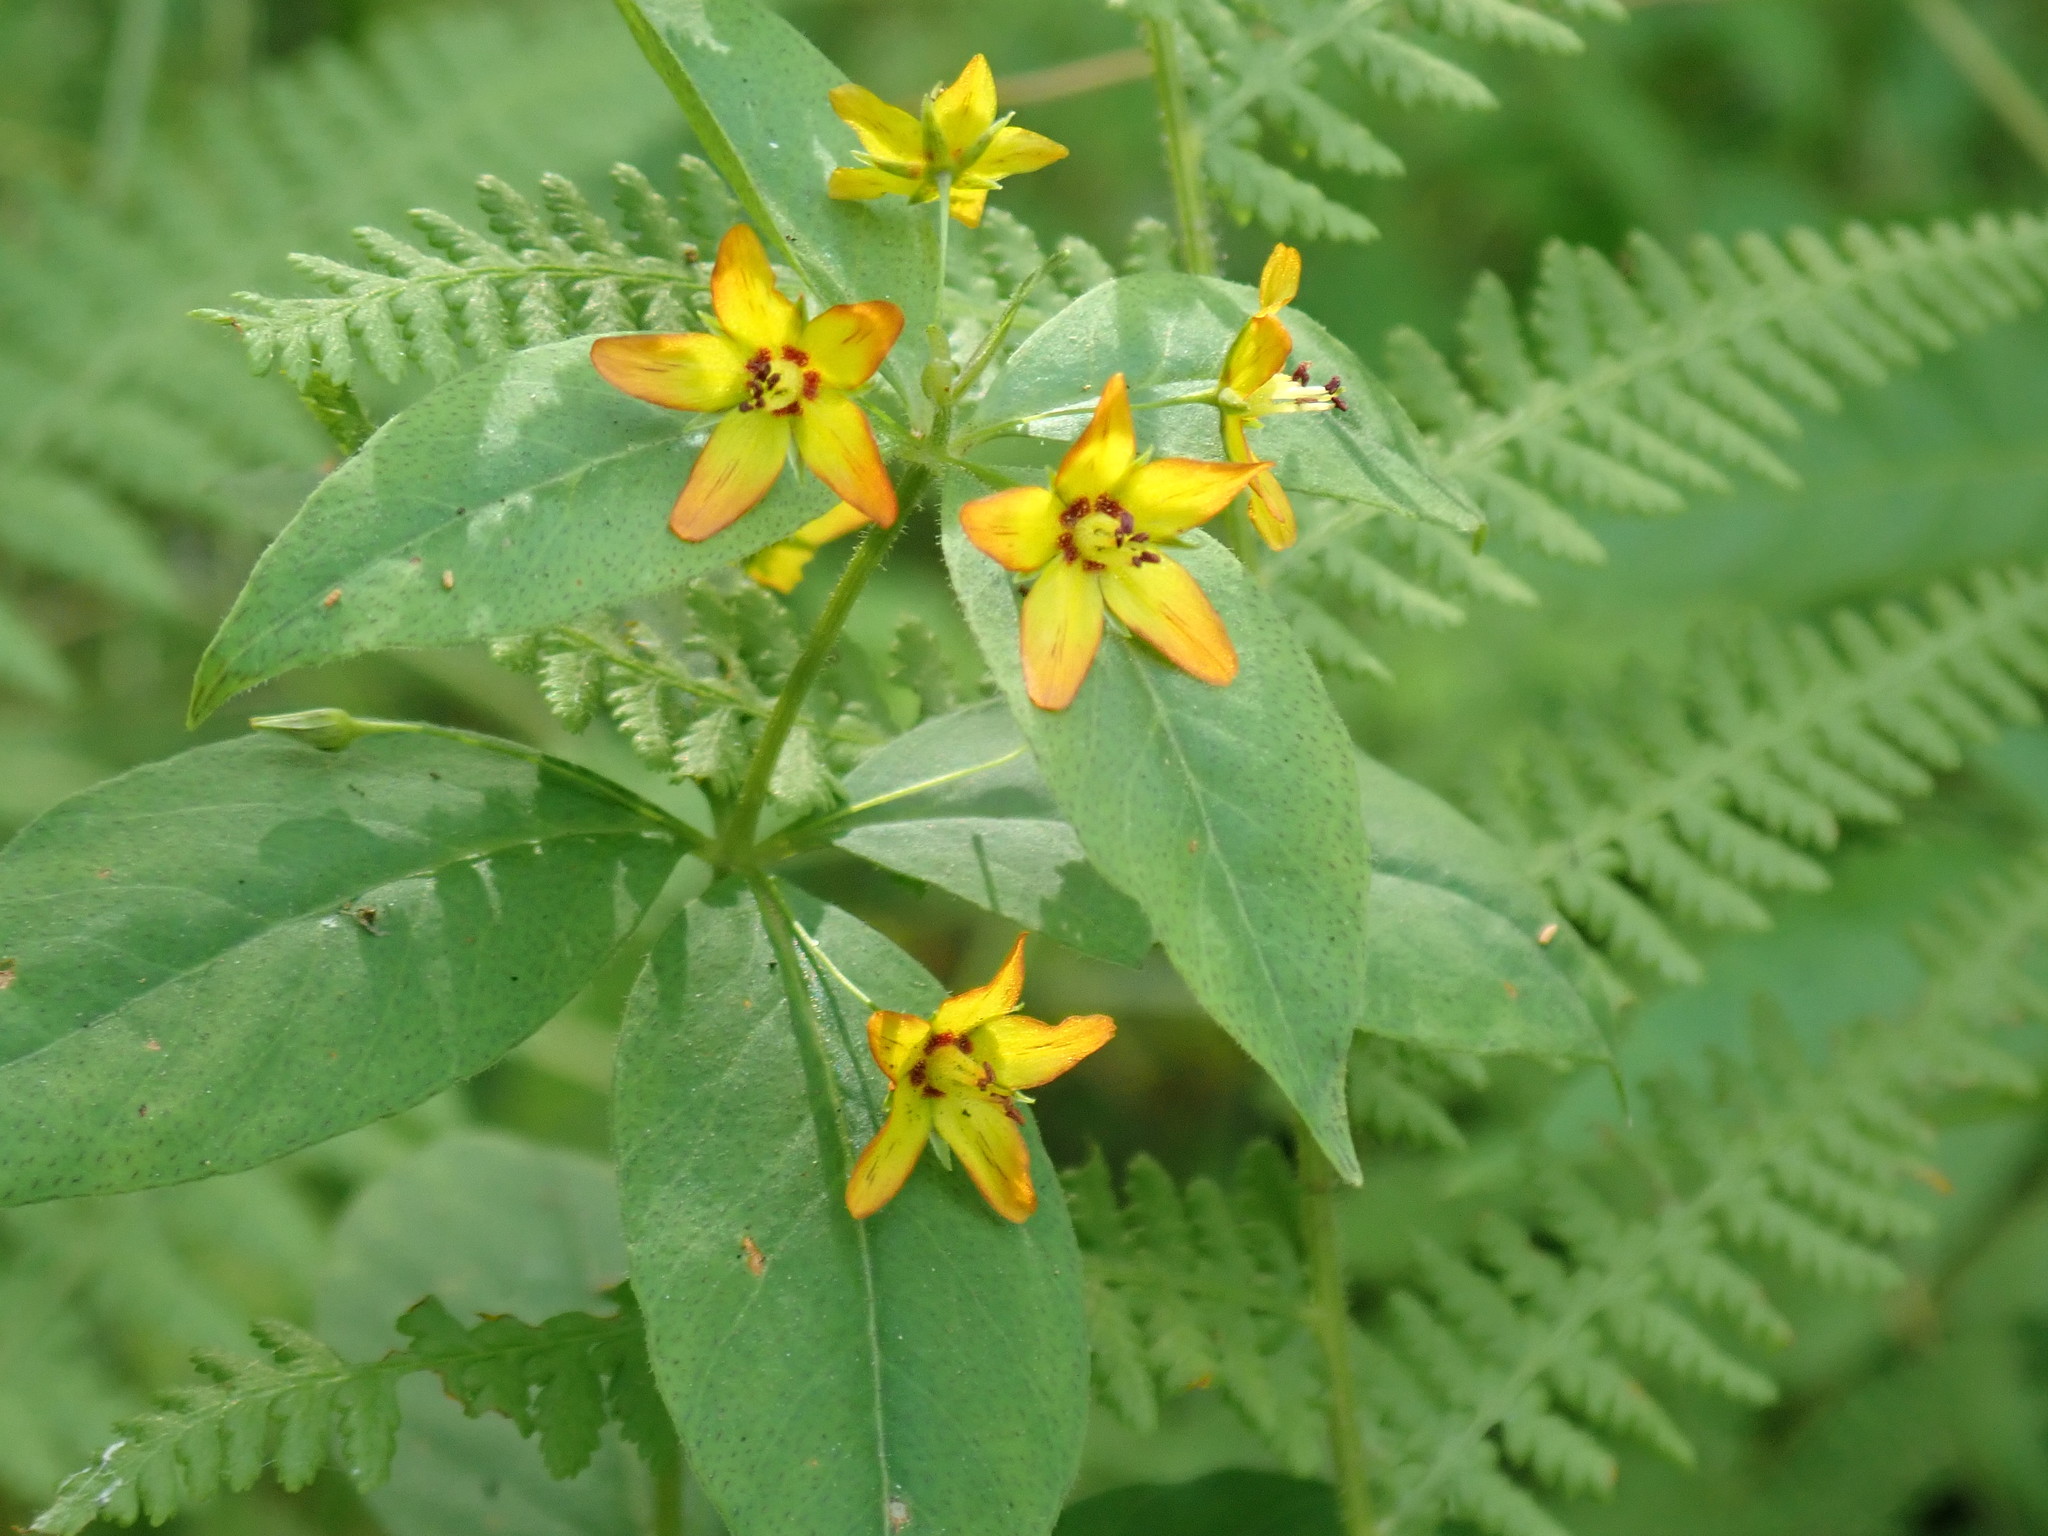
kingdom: Plantae
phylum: Tracheophyta
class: Magnoliopsida
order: Ericales
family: Primulaceae
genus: Lysimachia
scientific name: Lysimachia quadrifolia
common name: Whorled loosestrife
